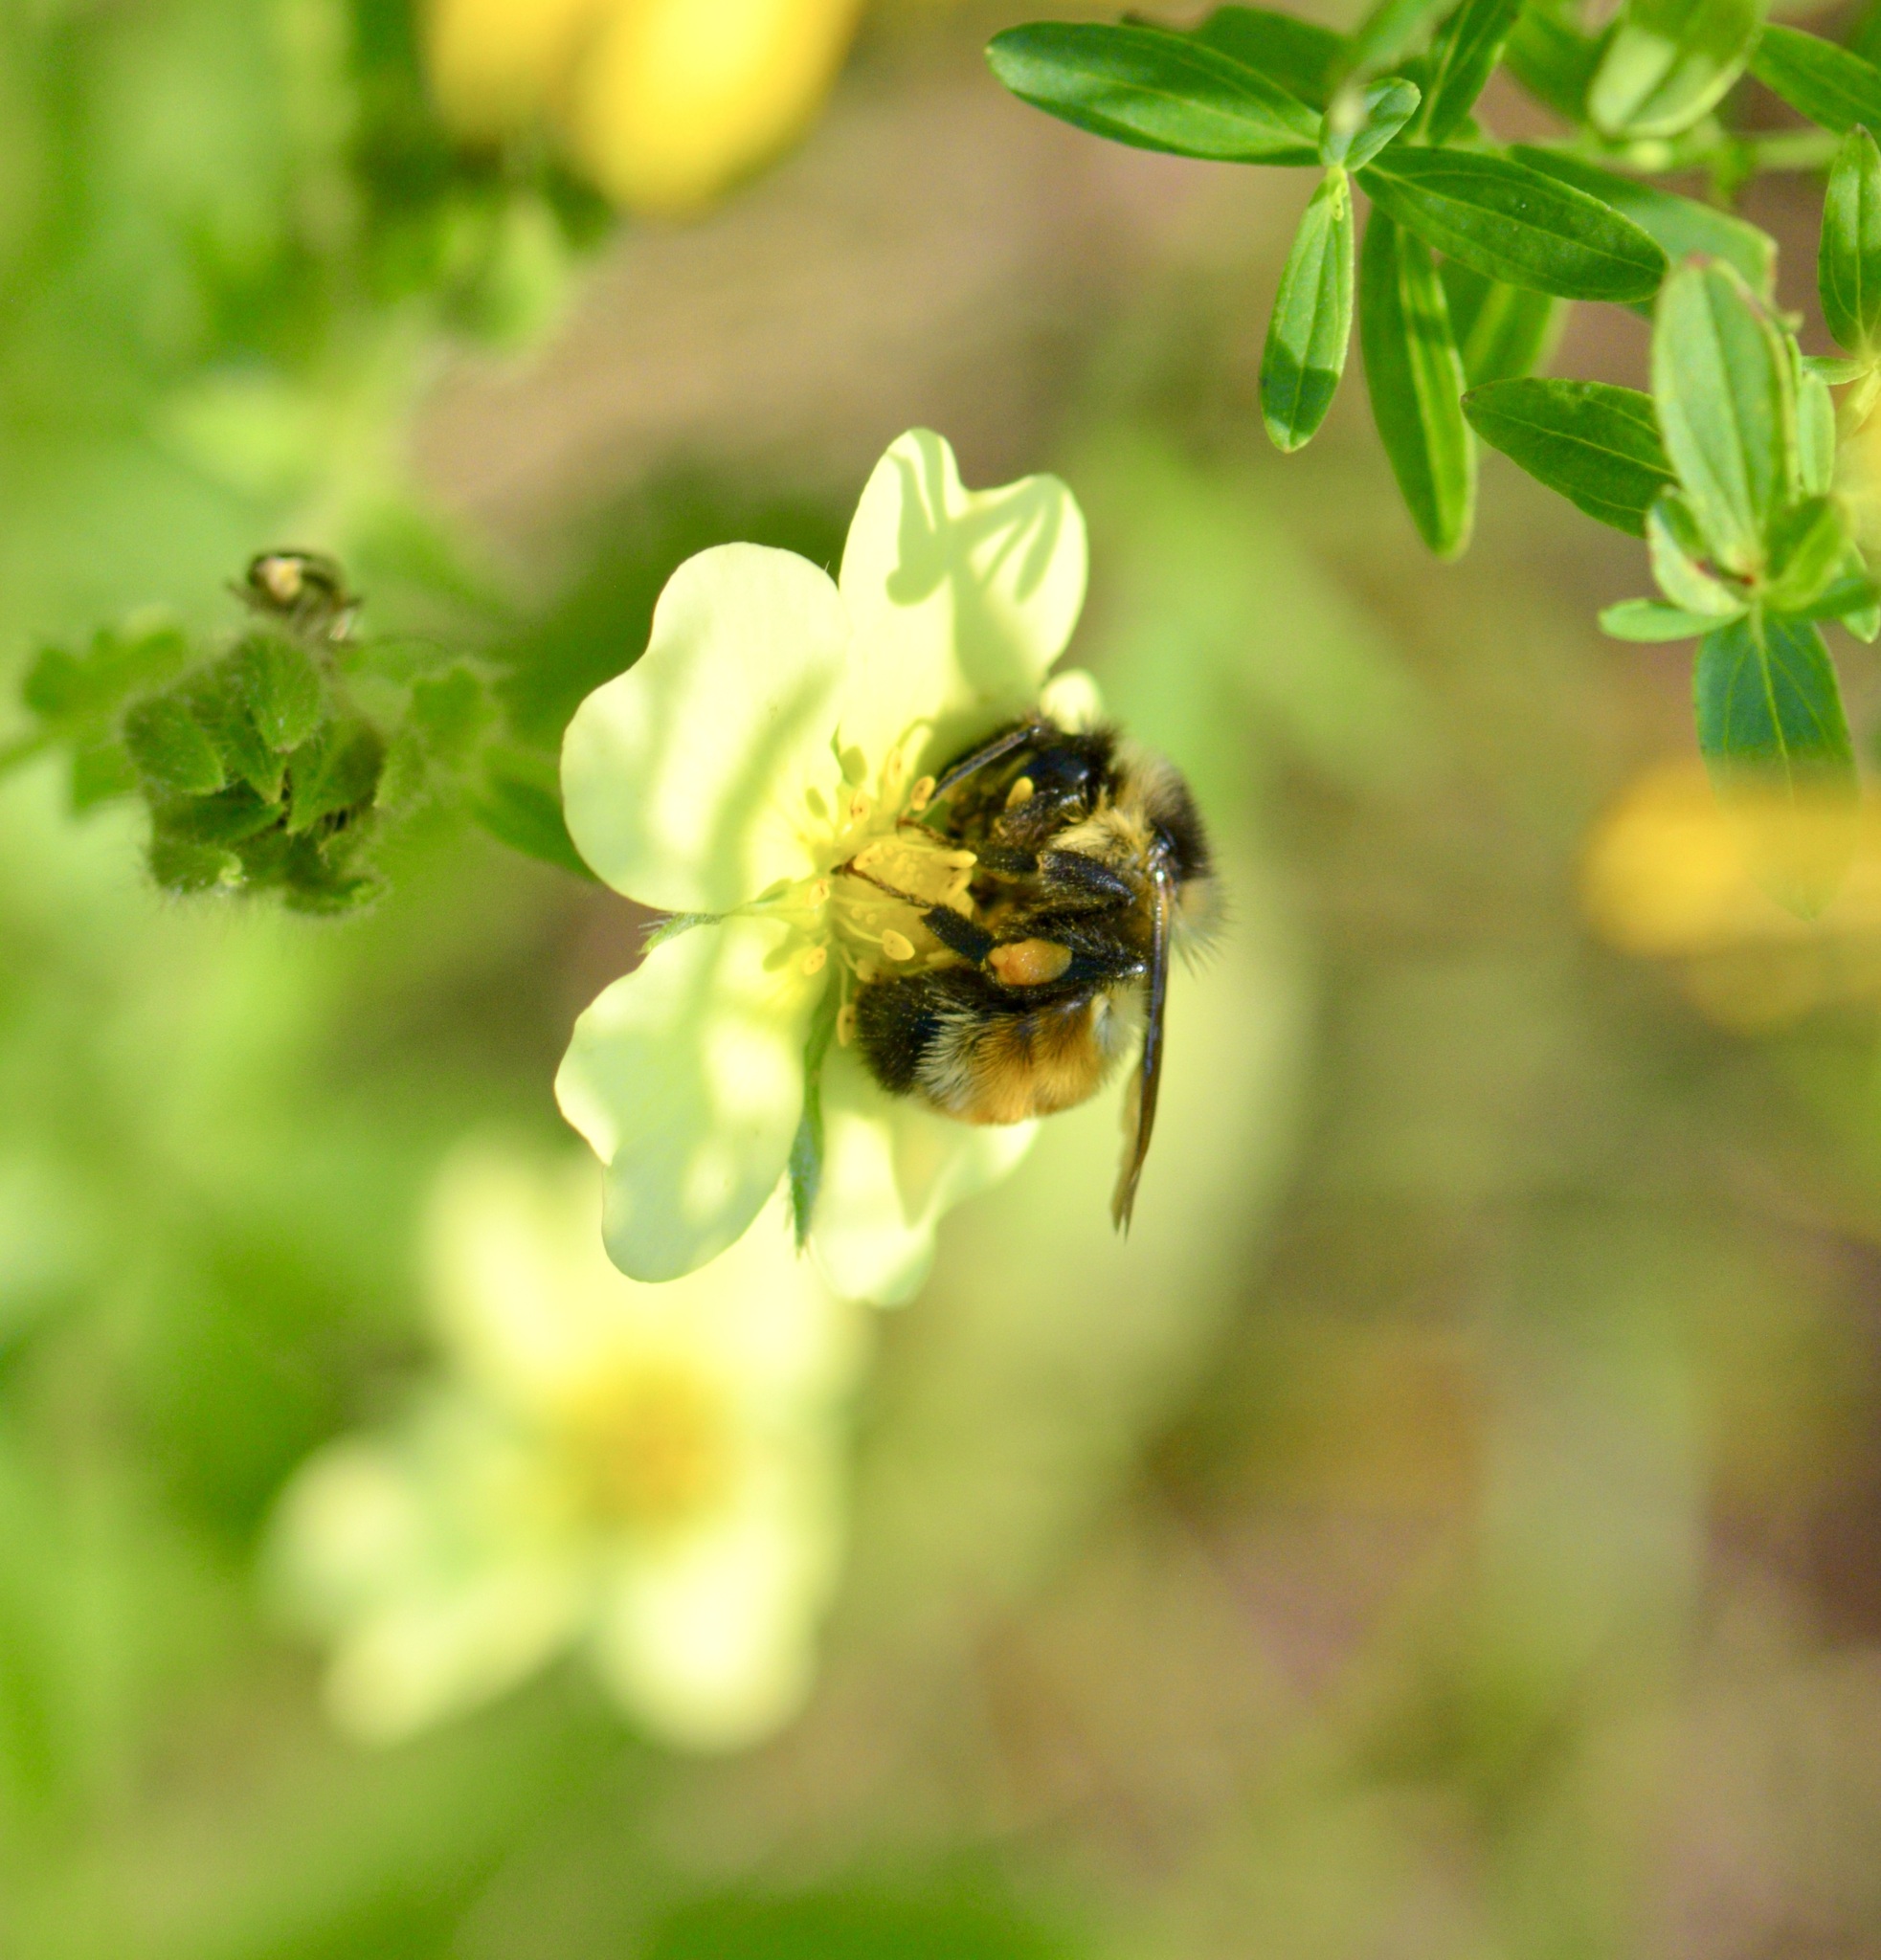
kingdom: Animalia
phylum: Arthropoda
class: Insecta
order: Hymenoptera
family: Apidae
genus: Bombus
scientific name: Bombus ternarius
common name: Tri-colored bumble bee
